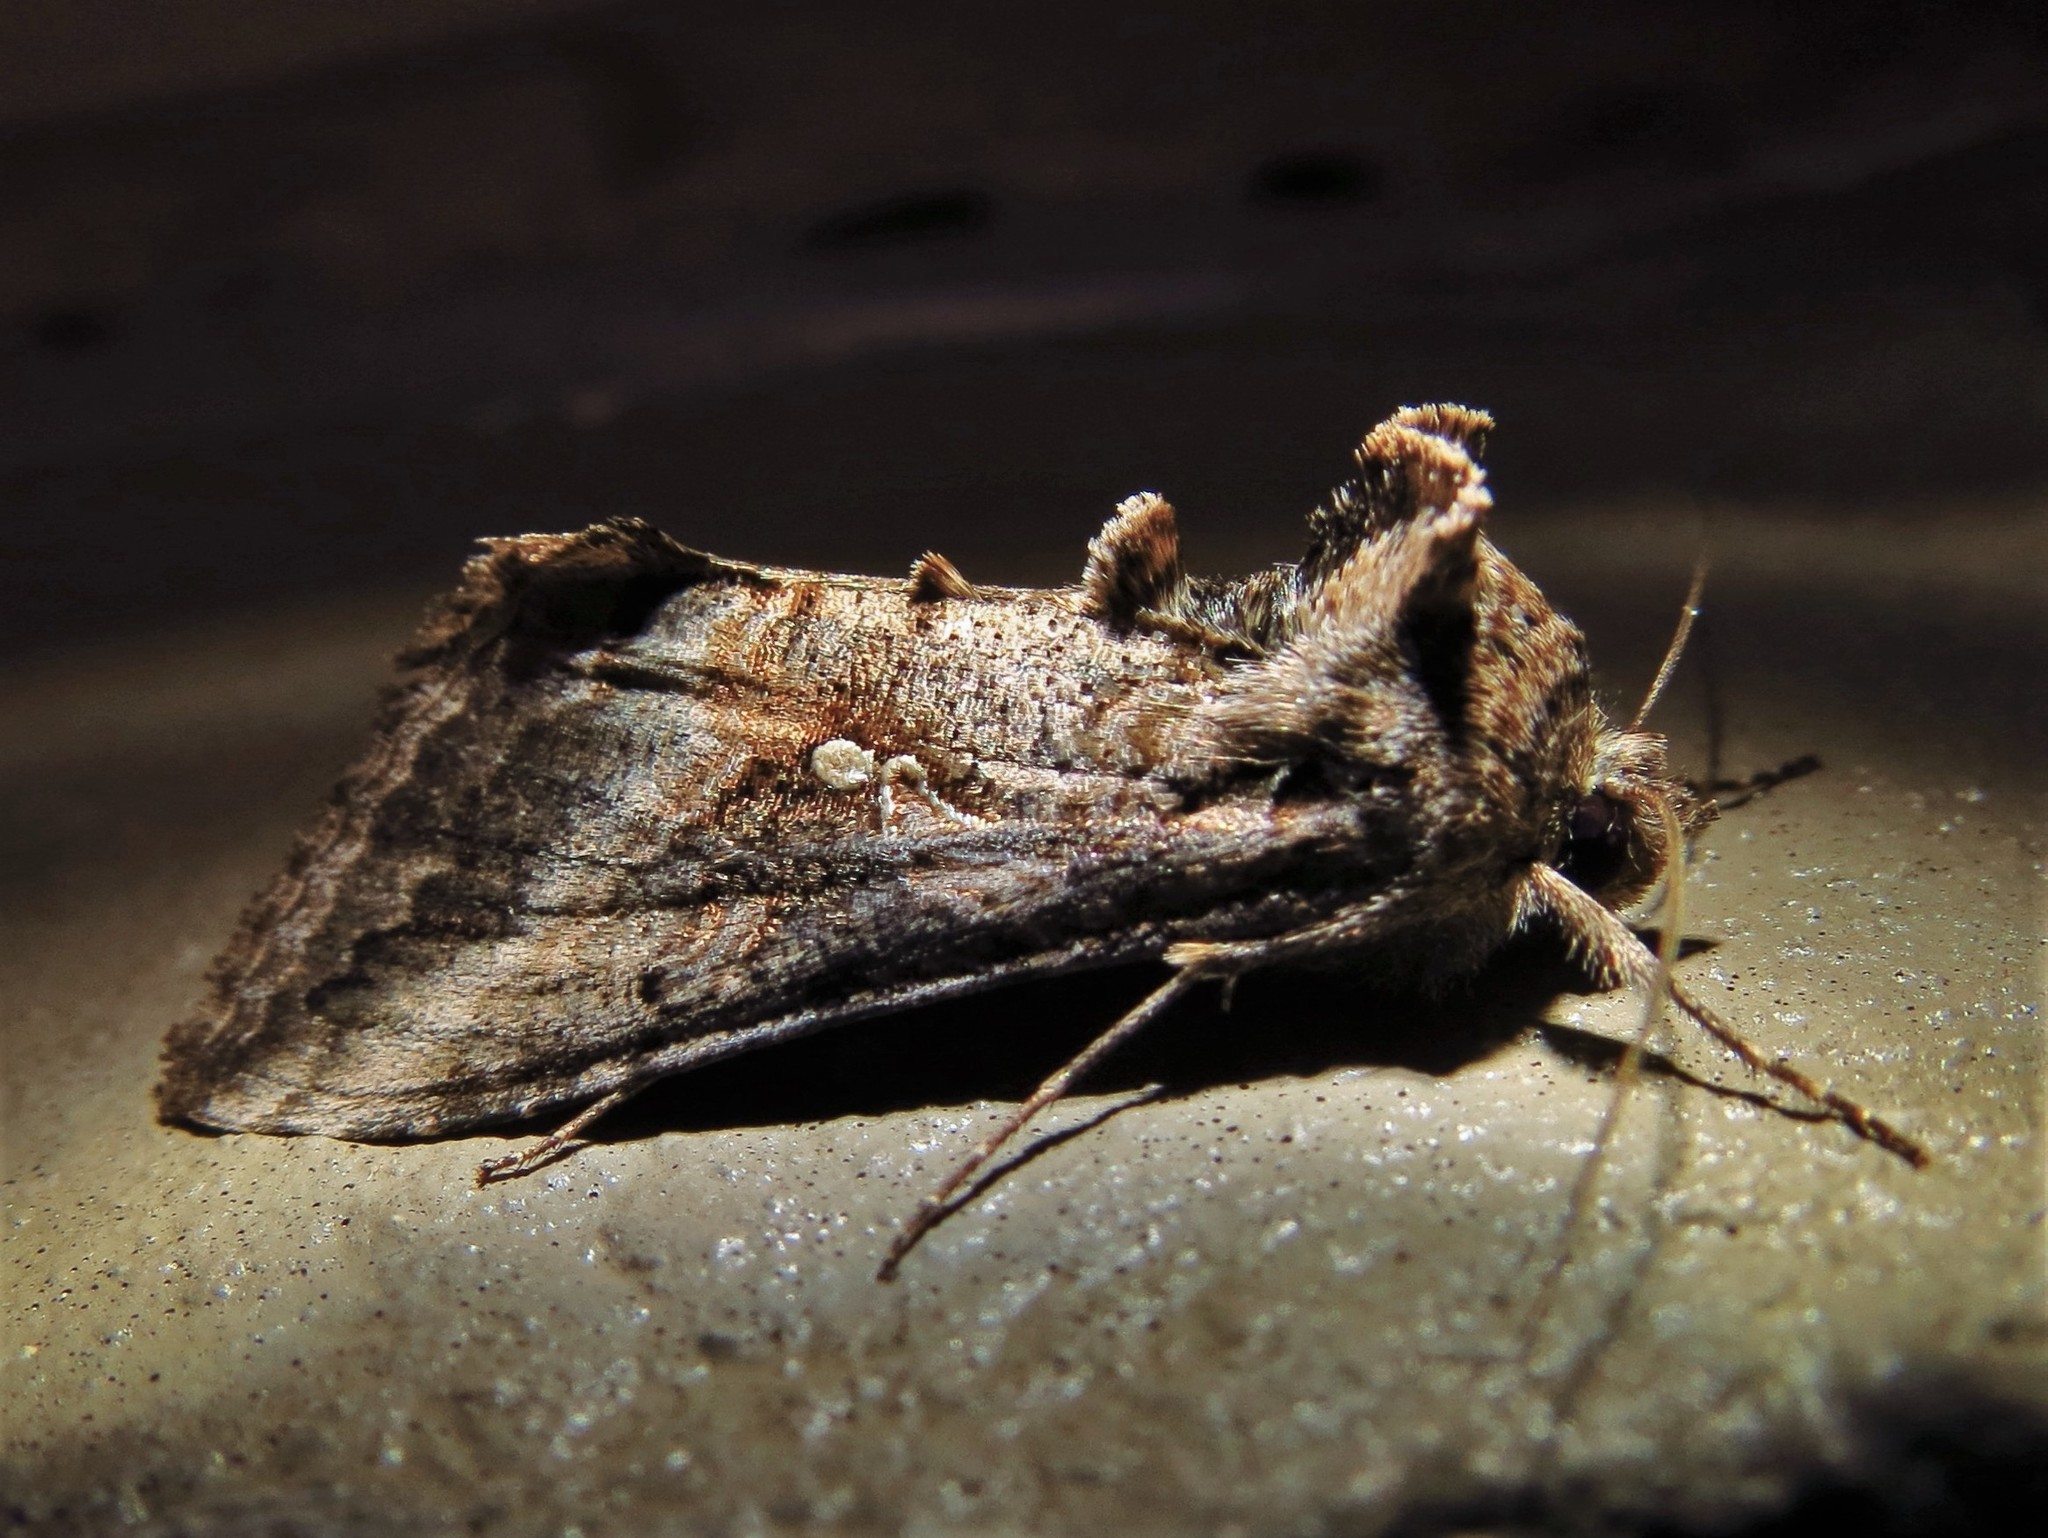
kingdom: Animalia
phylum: Arthropoda
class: Insecta
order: Lepidoptera
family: Noctuidae
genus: Rachiplusia
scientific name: Rachiplusia ou
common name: Gray looper moth
